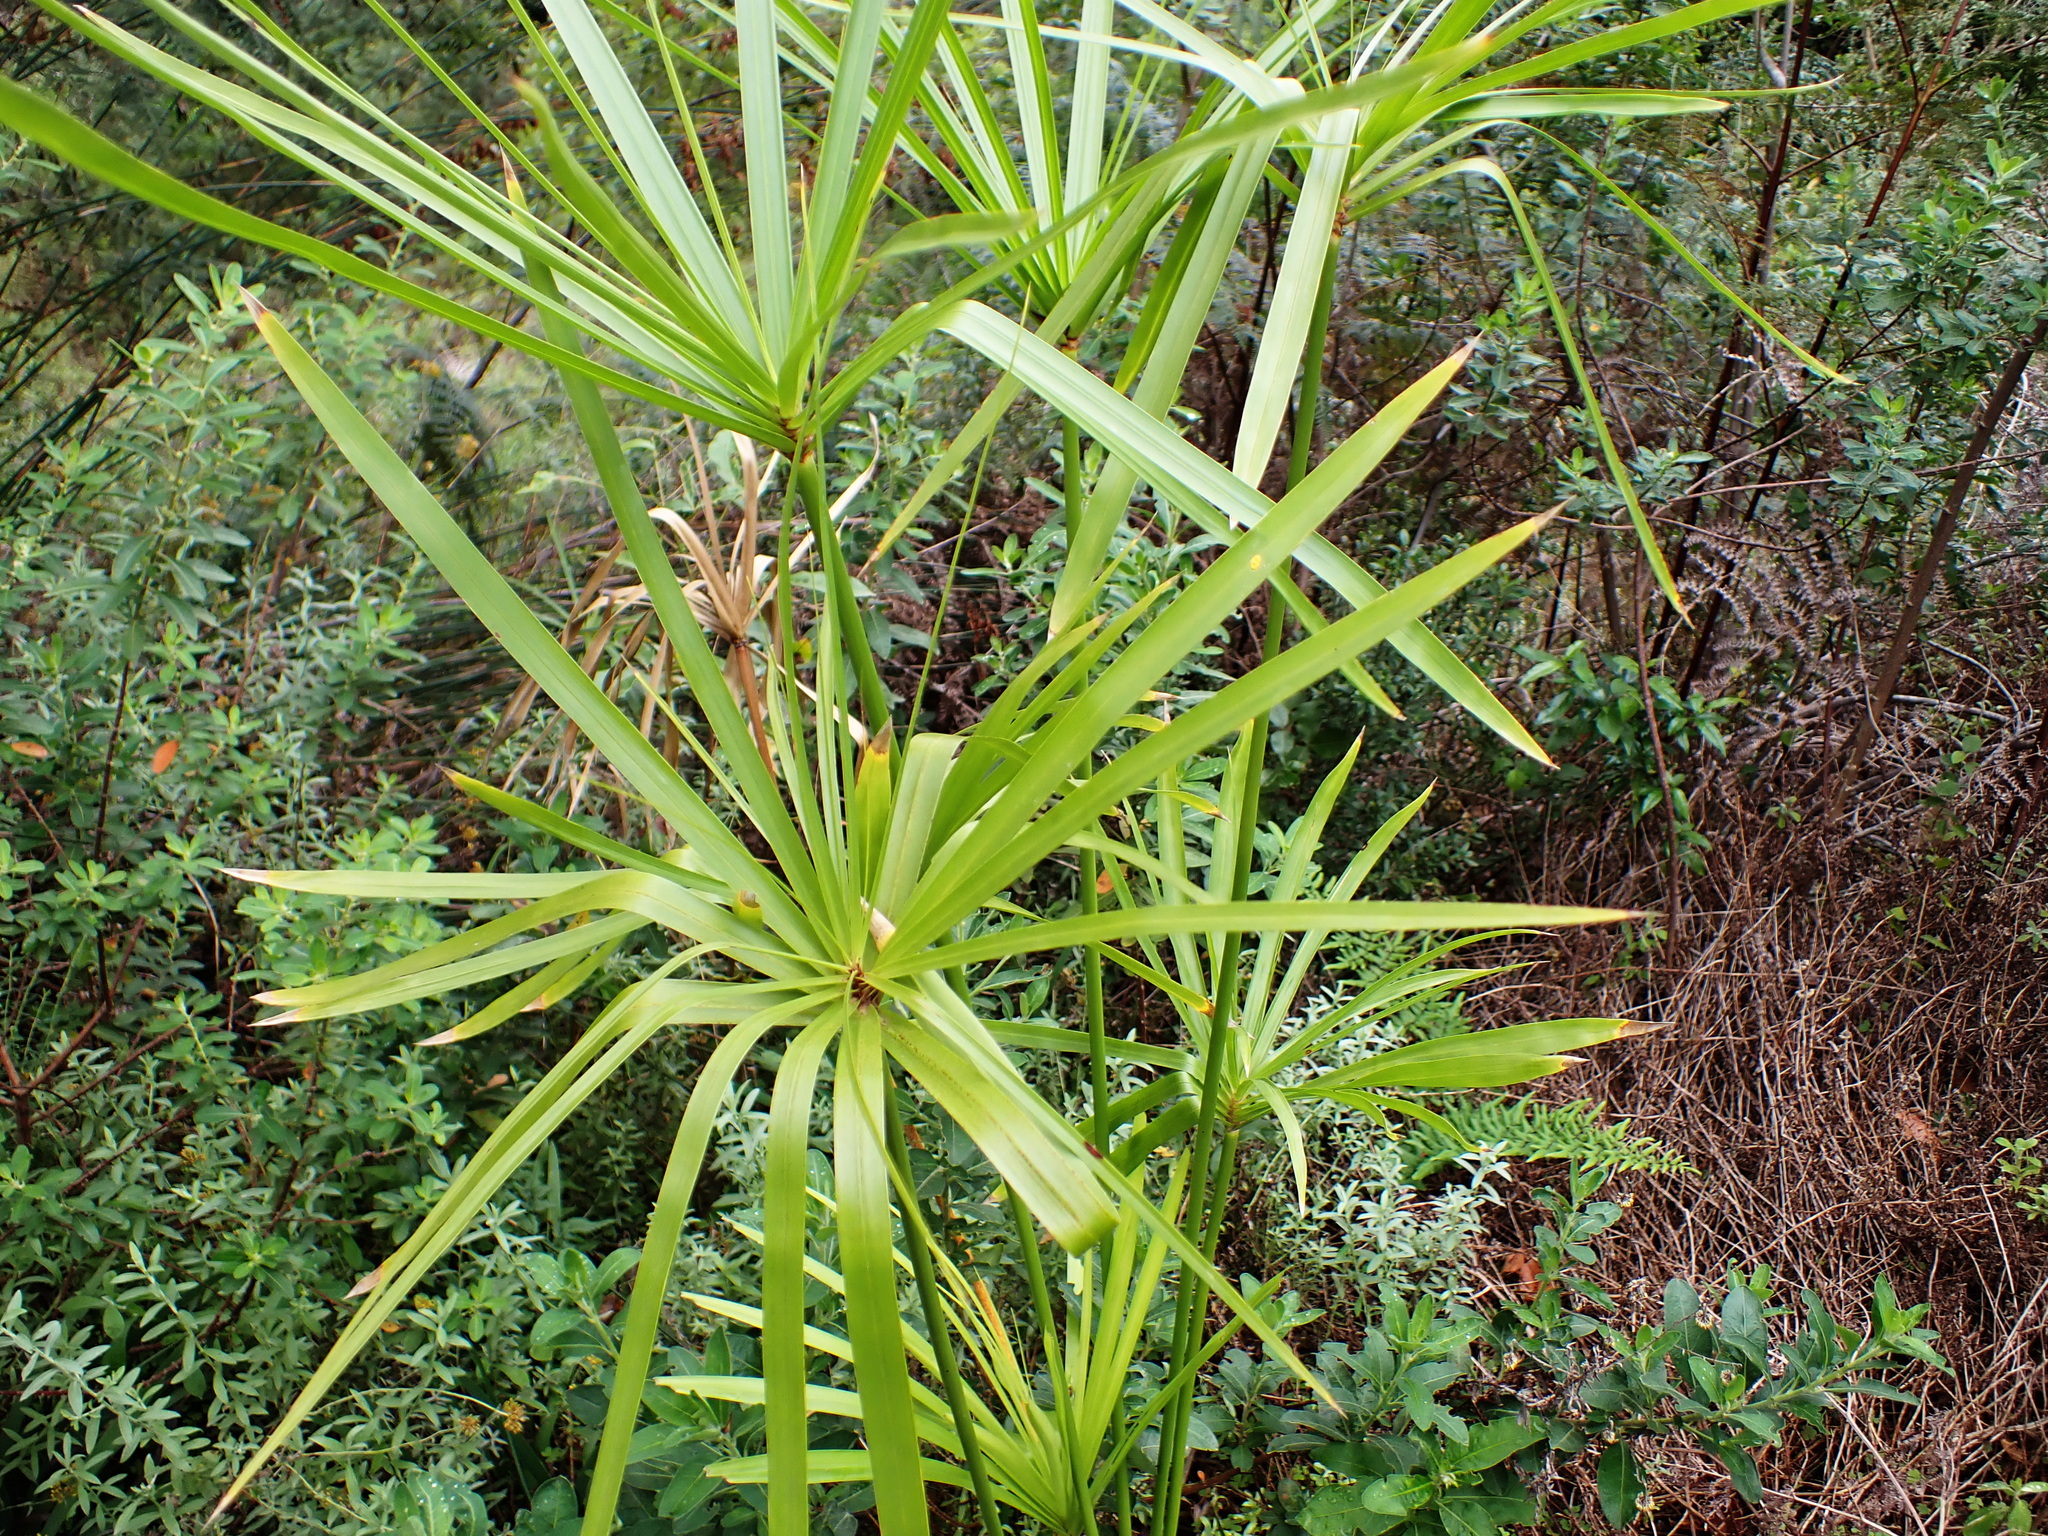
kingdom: Plantae
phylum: Tracheophyta
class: Liliopsida
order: Poales
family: Cyperaceae
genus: Cyperus
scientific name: Cyperus textilis
